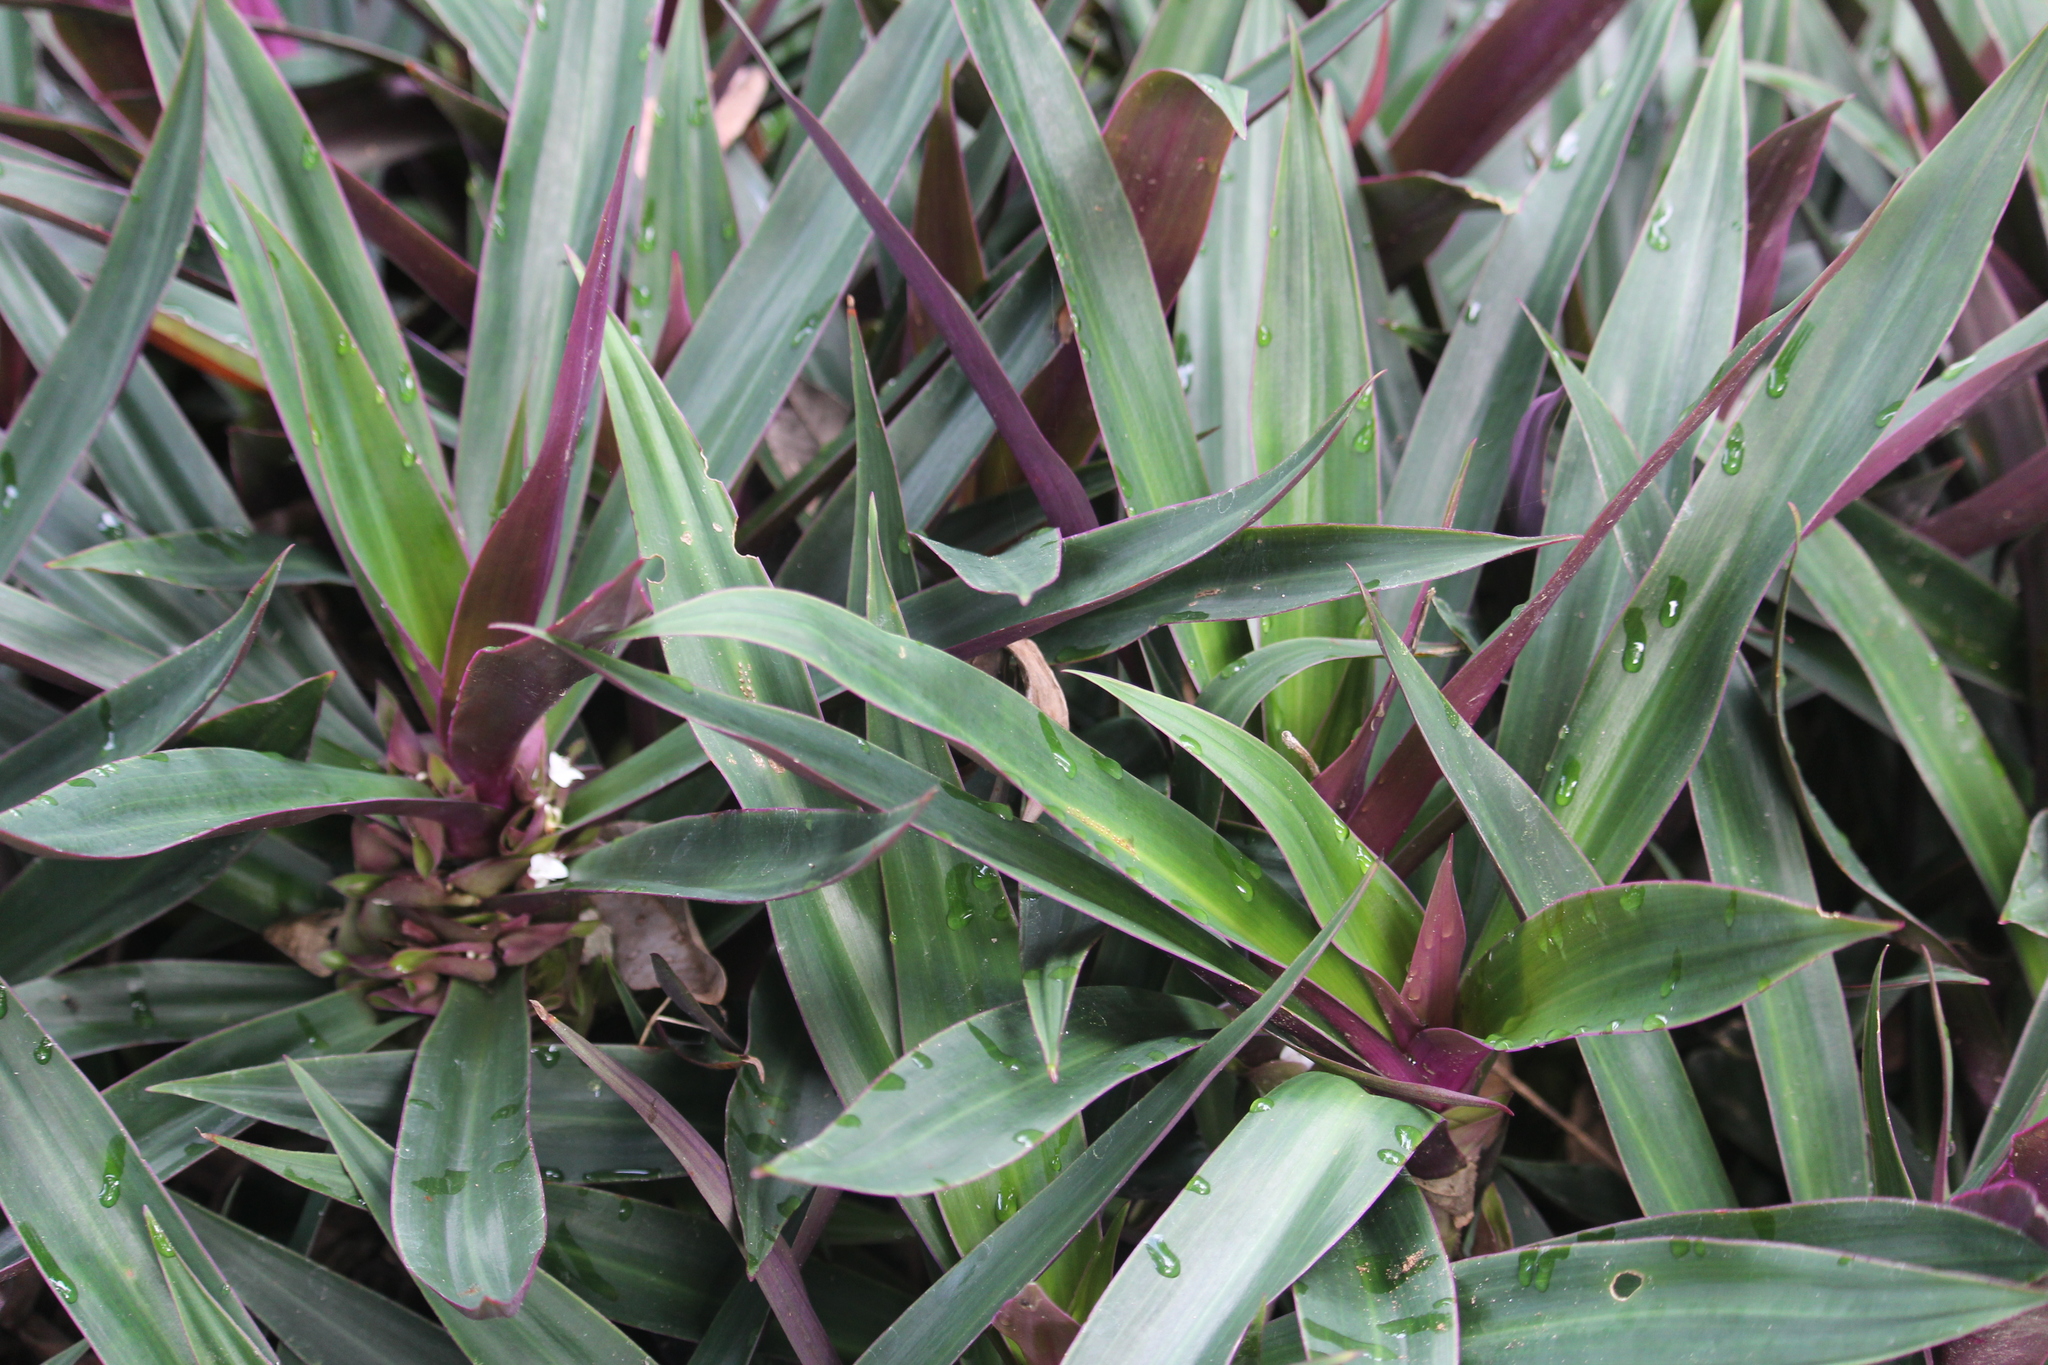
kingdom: Plantae
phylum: Tracheophyta
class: Liliopsida
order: Commelinales
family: Commelinaceae
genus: Tradescantia
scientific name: Tradescantia spathacea
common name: Boatlily
